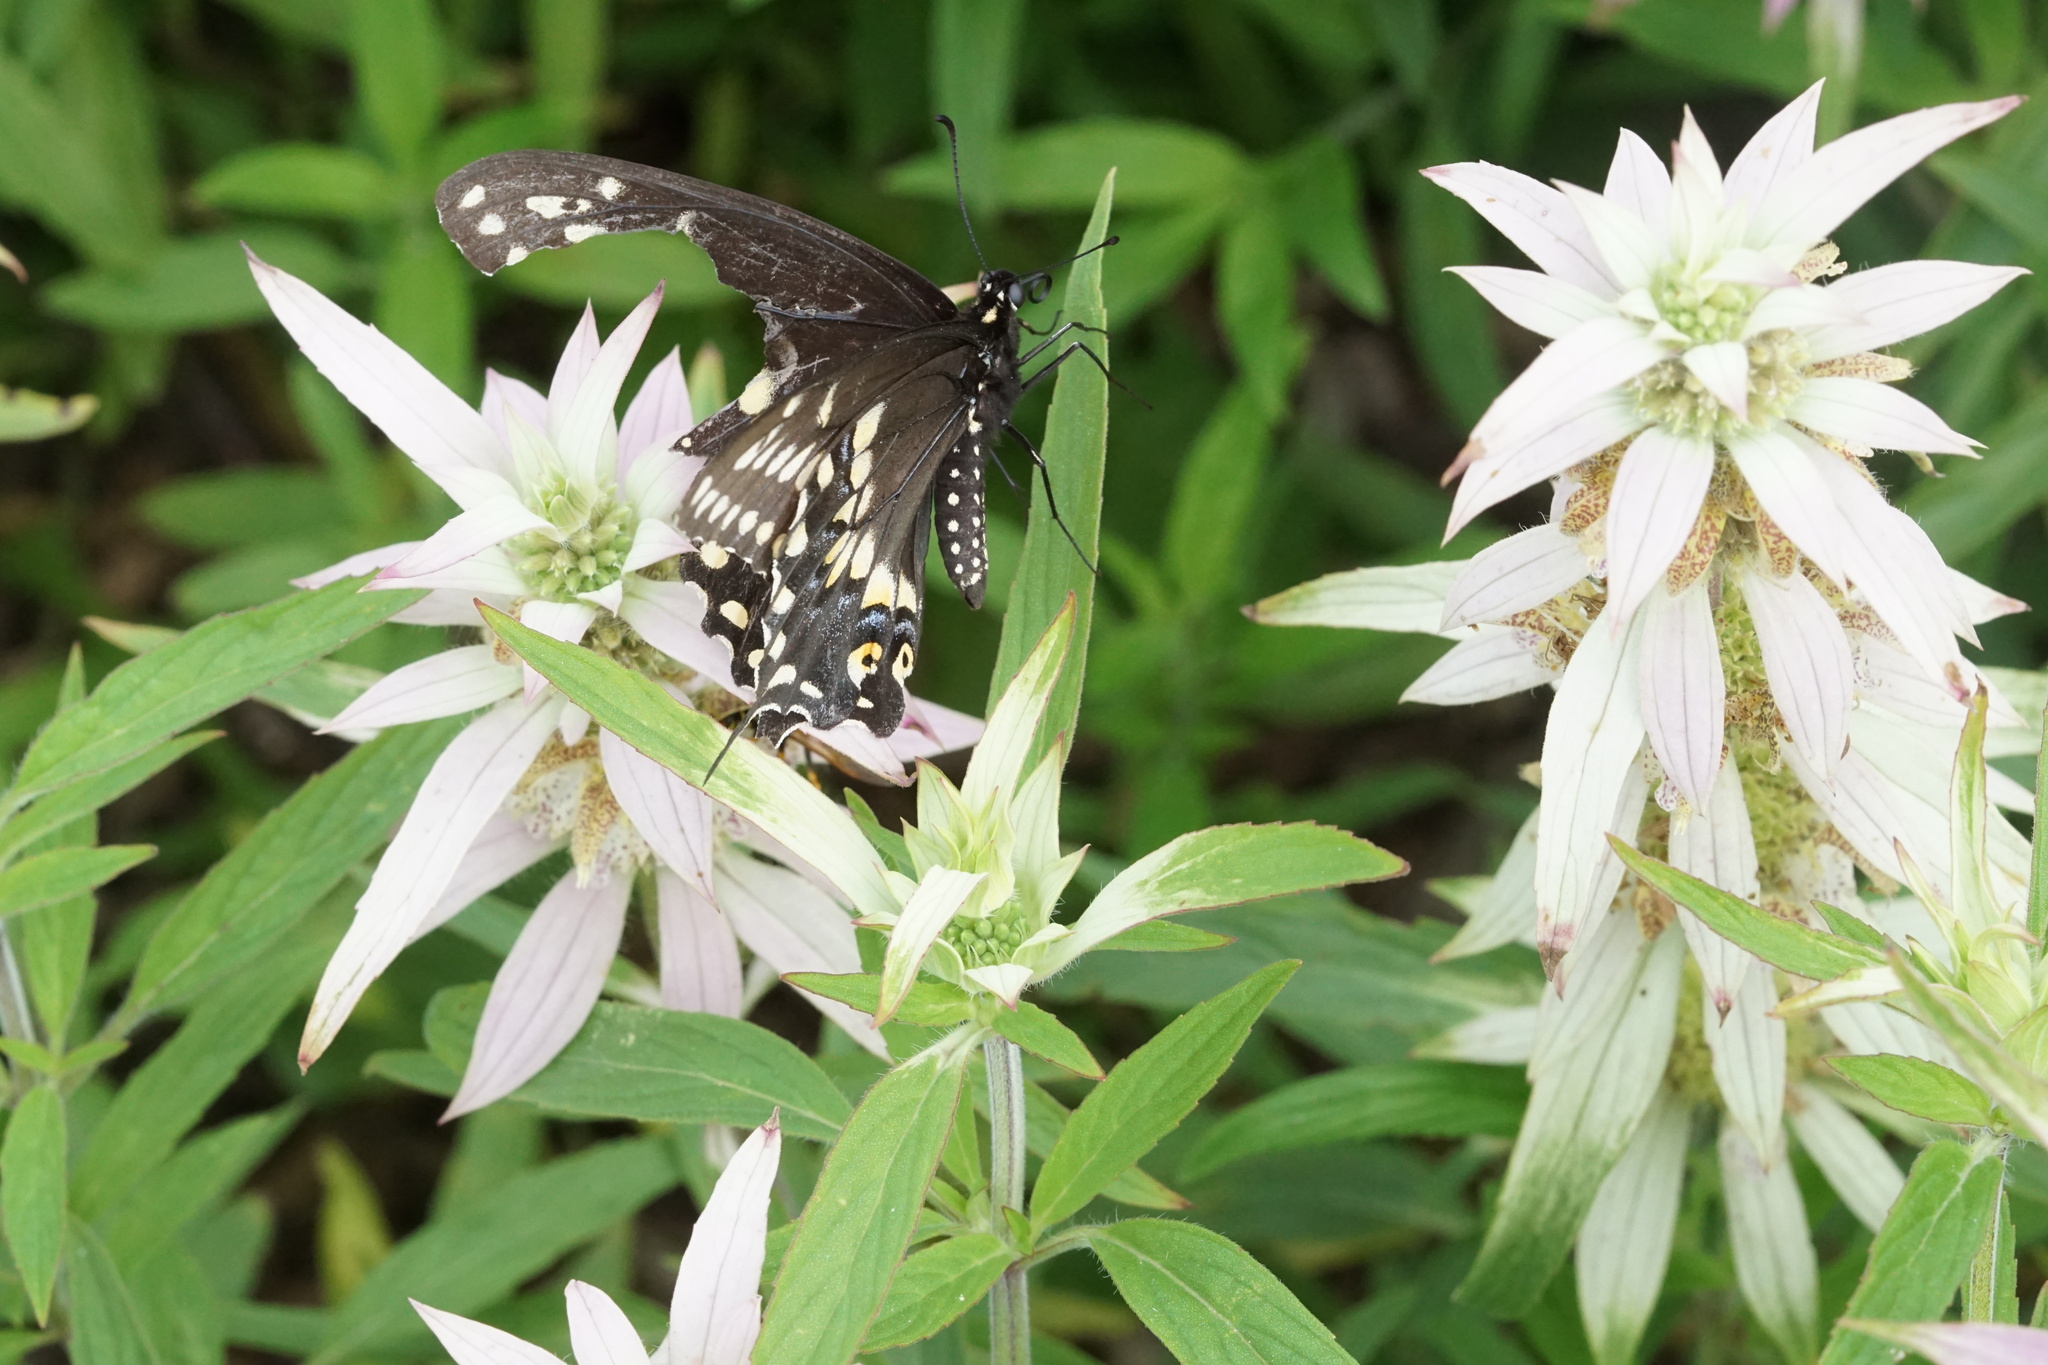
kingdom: Animalia
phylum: Arthropoda
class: Insecta
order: Lepidoptera
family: Papilionidae
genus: Papilio
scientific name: Papilio polyxenes
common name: Black swallowtail
